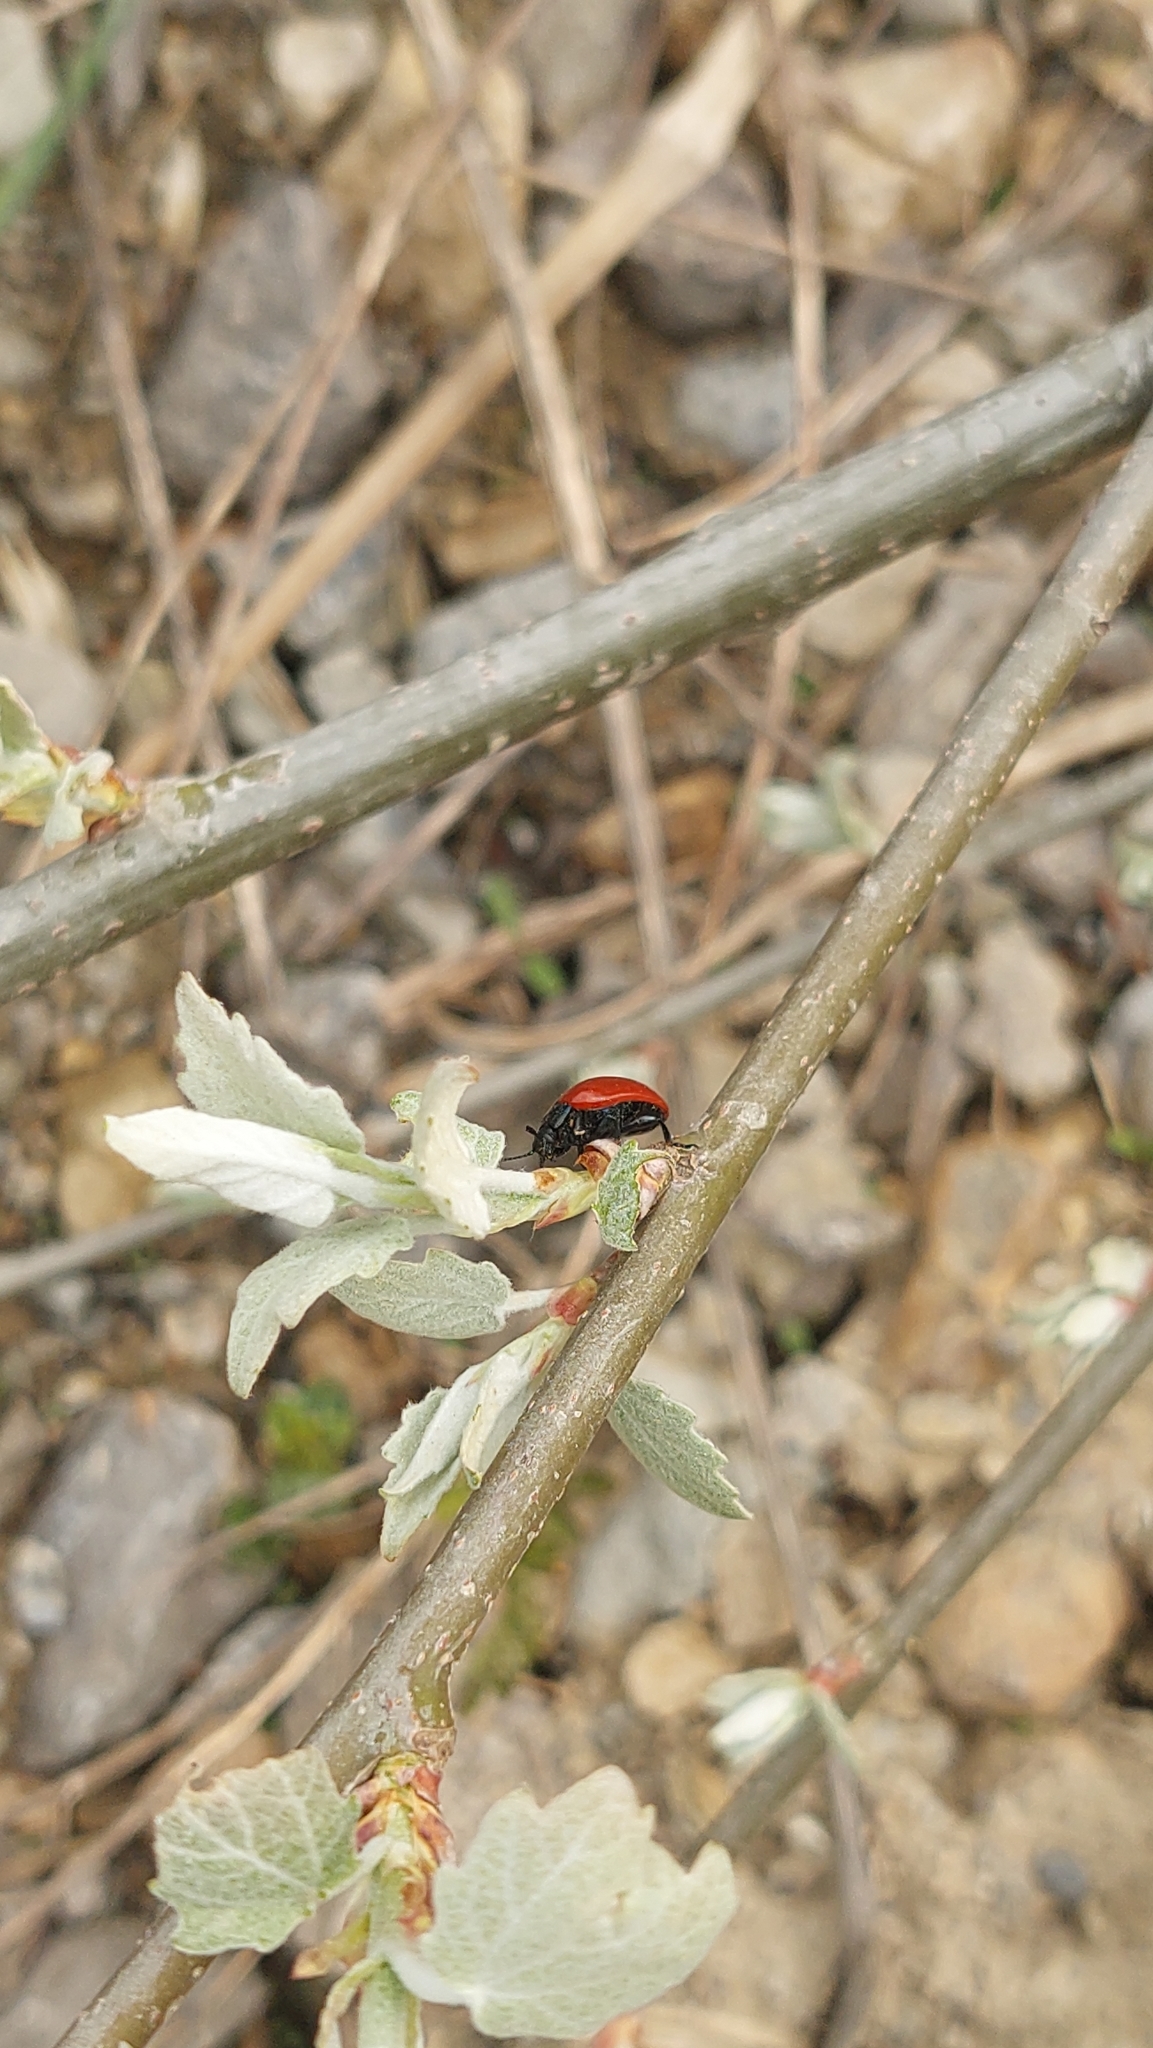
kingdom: Animalia
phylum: Arthropoda
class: Insecta
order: Coleoptera
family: Chrysomelidae
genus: Chrysomela
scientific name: Chrysomela populi
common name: Red poplar leaf beetle
